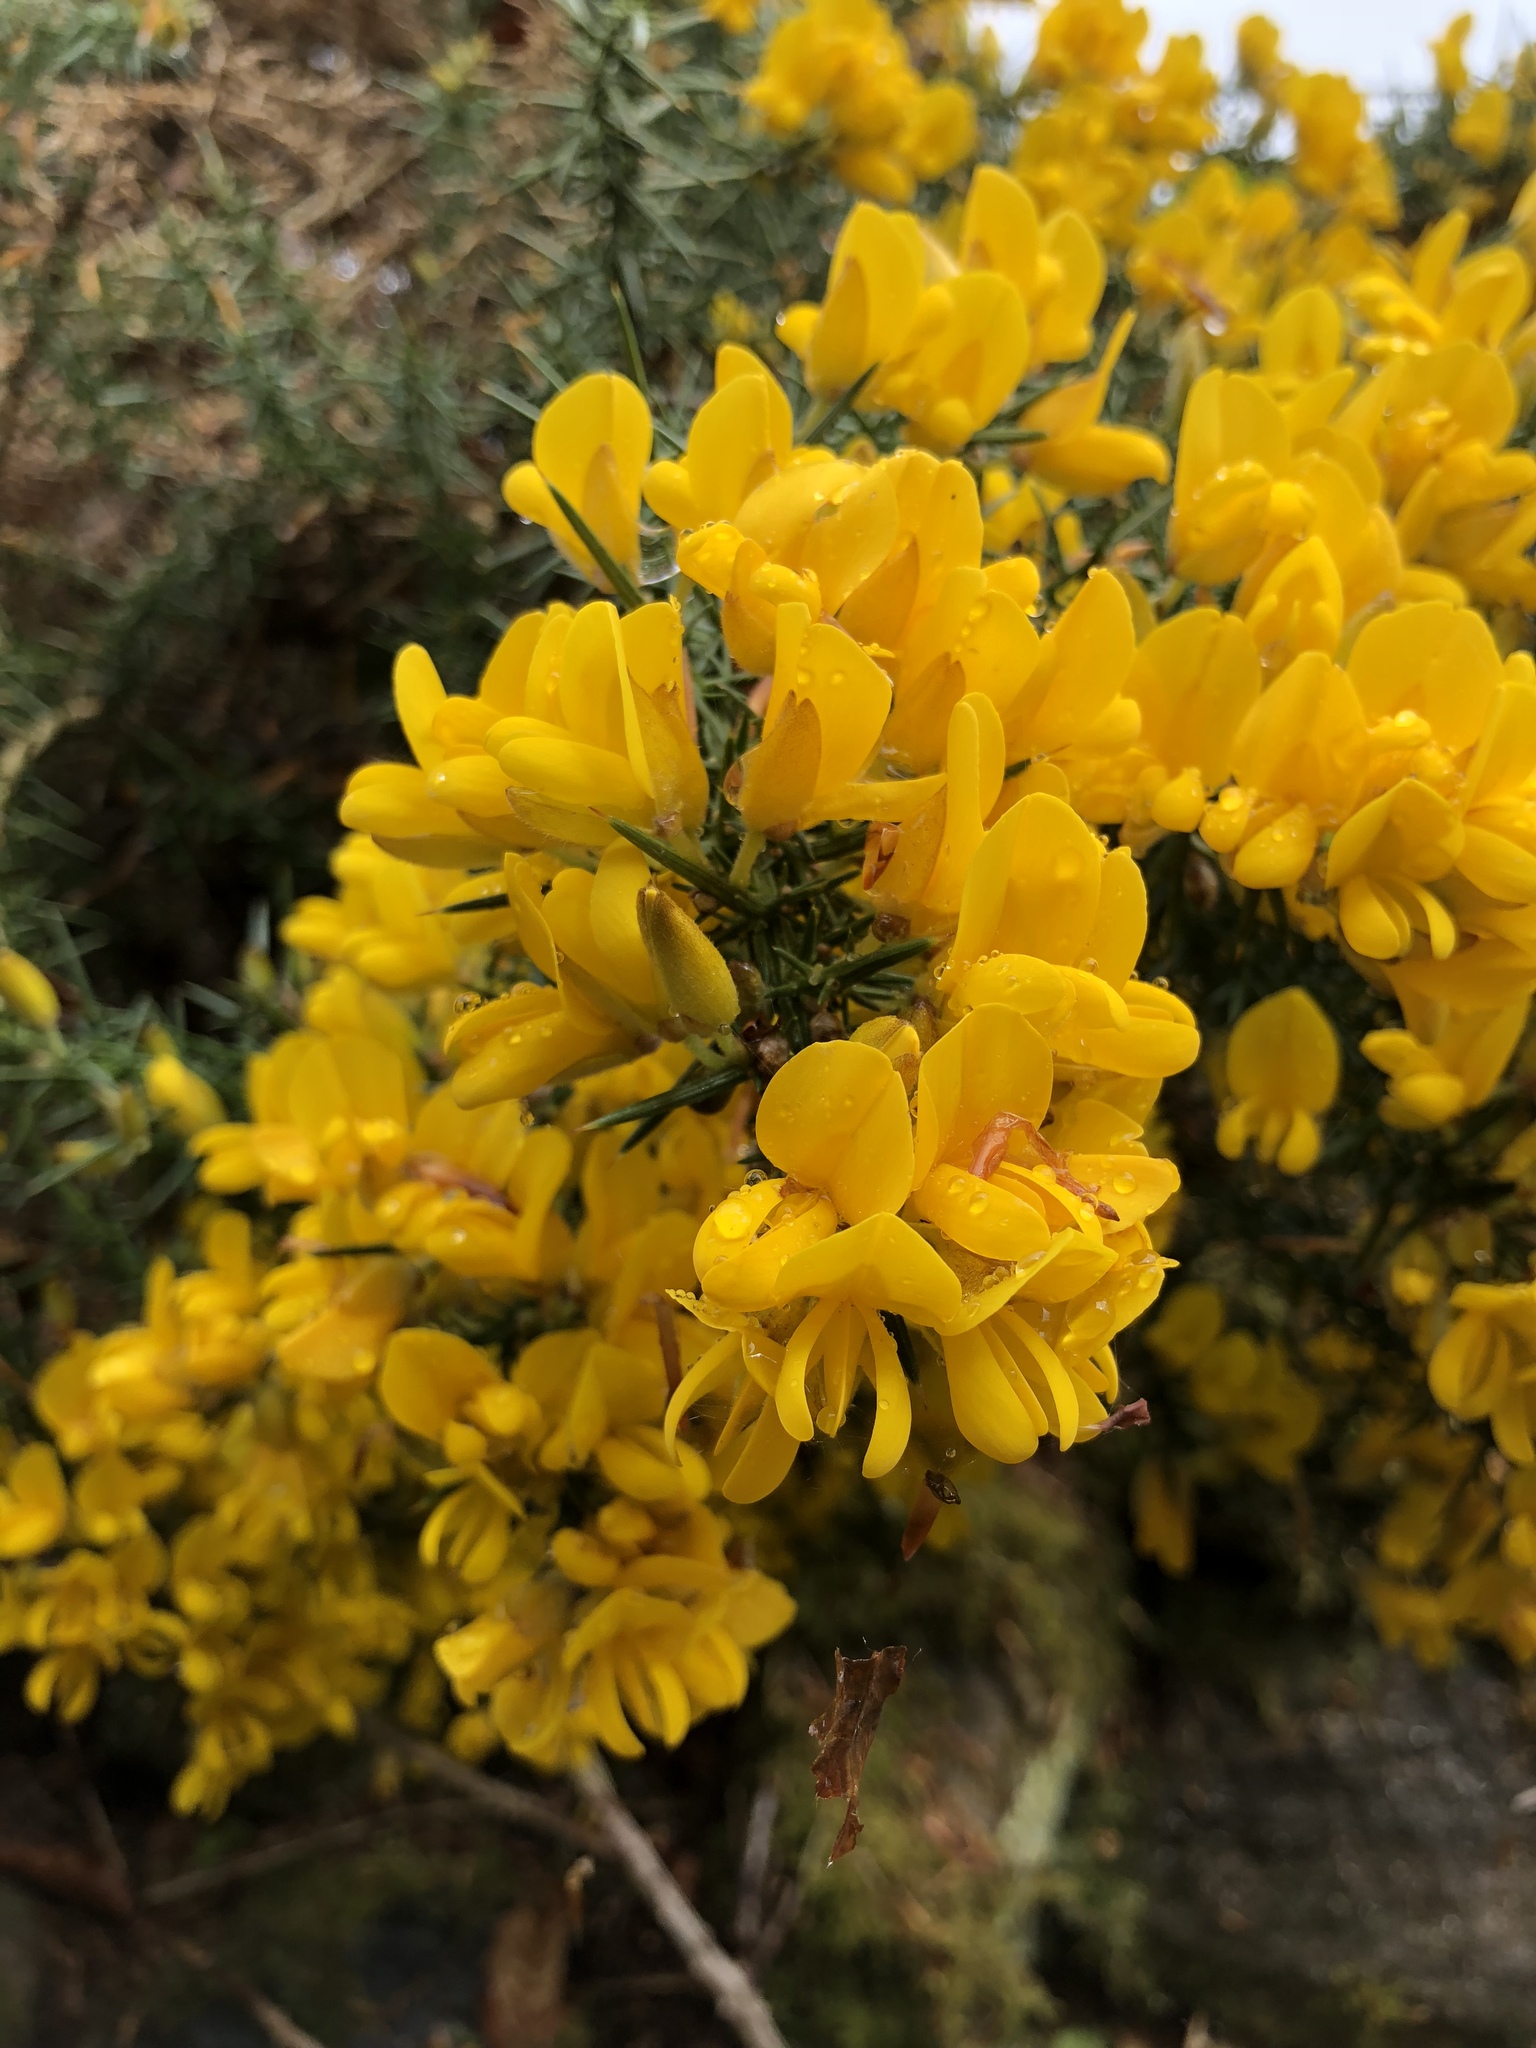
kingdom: Plantae
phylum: Tracheophyta
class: Magnoliopsida
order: Fabales
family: Fabaceae
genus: Ulex
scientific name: Ulex europaeus
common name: Common gorse
